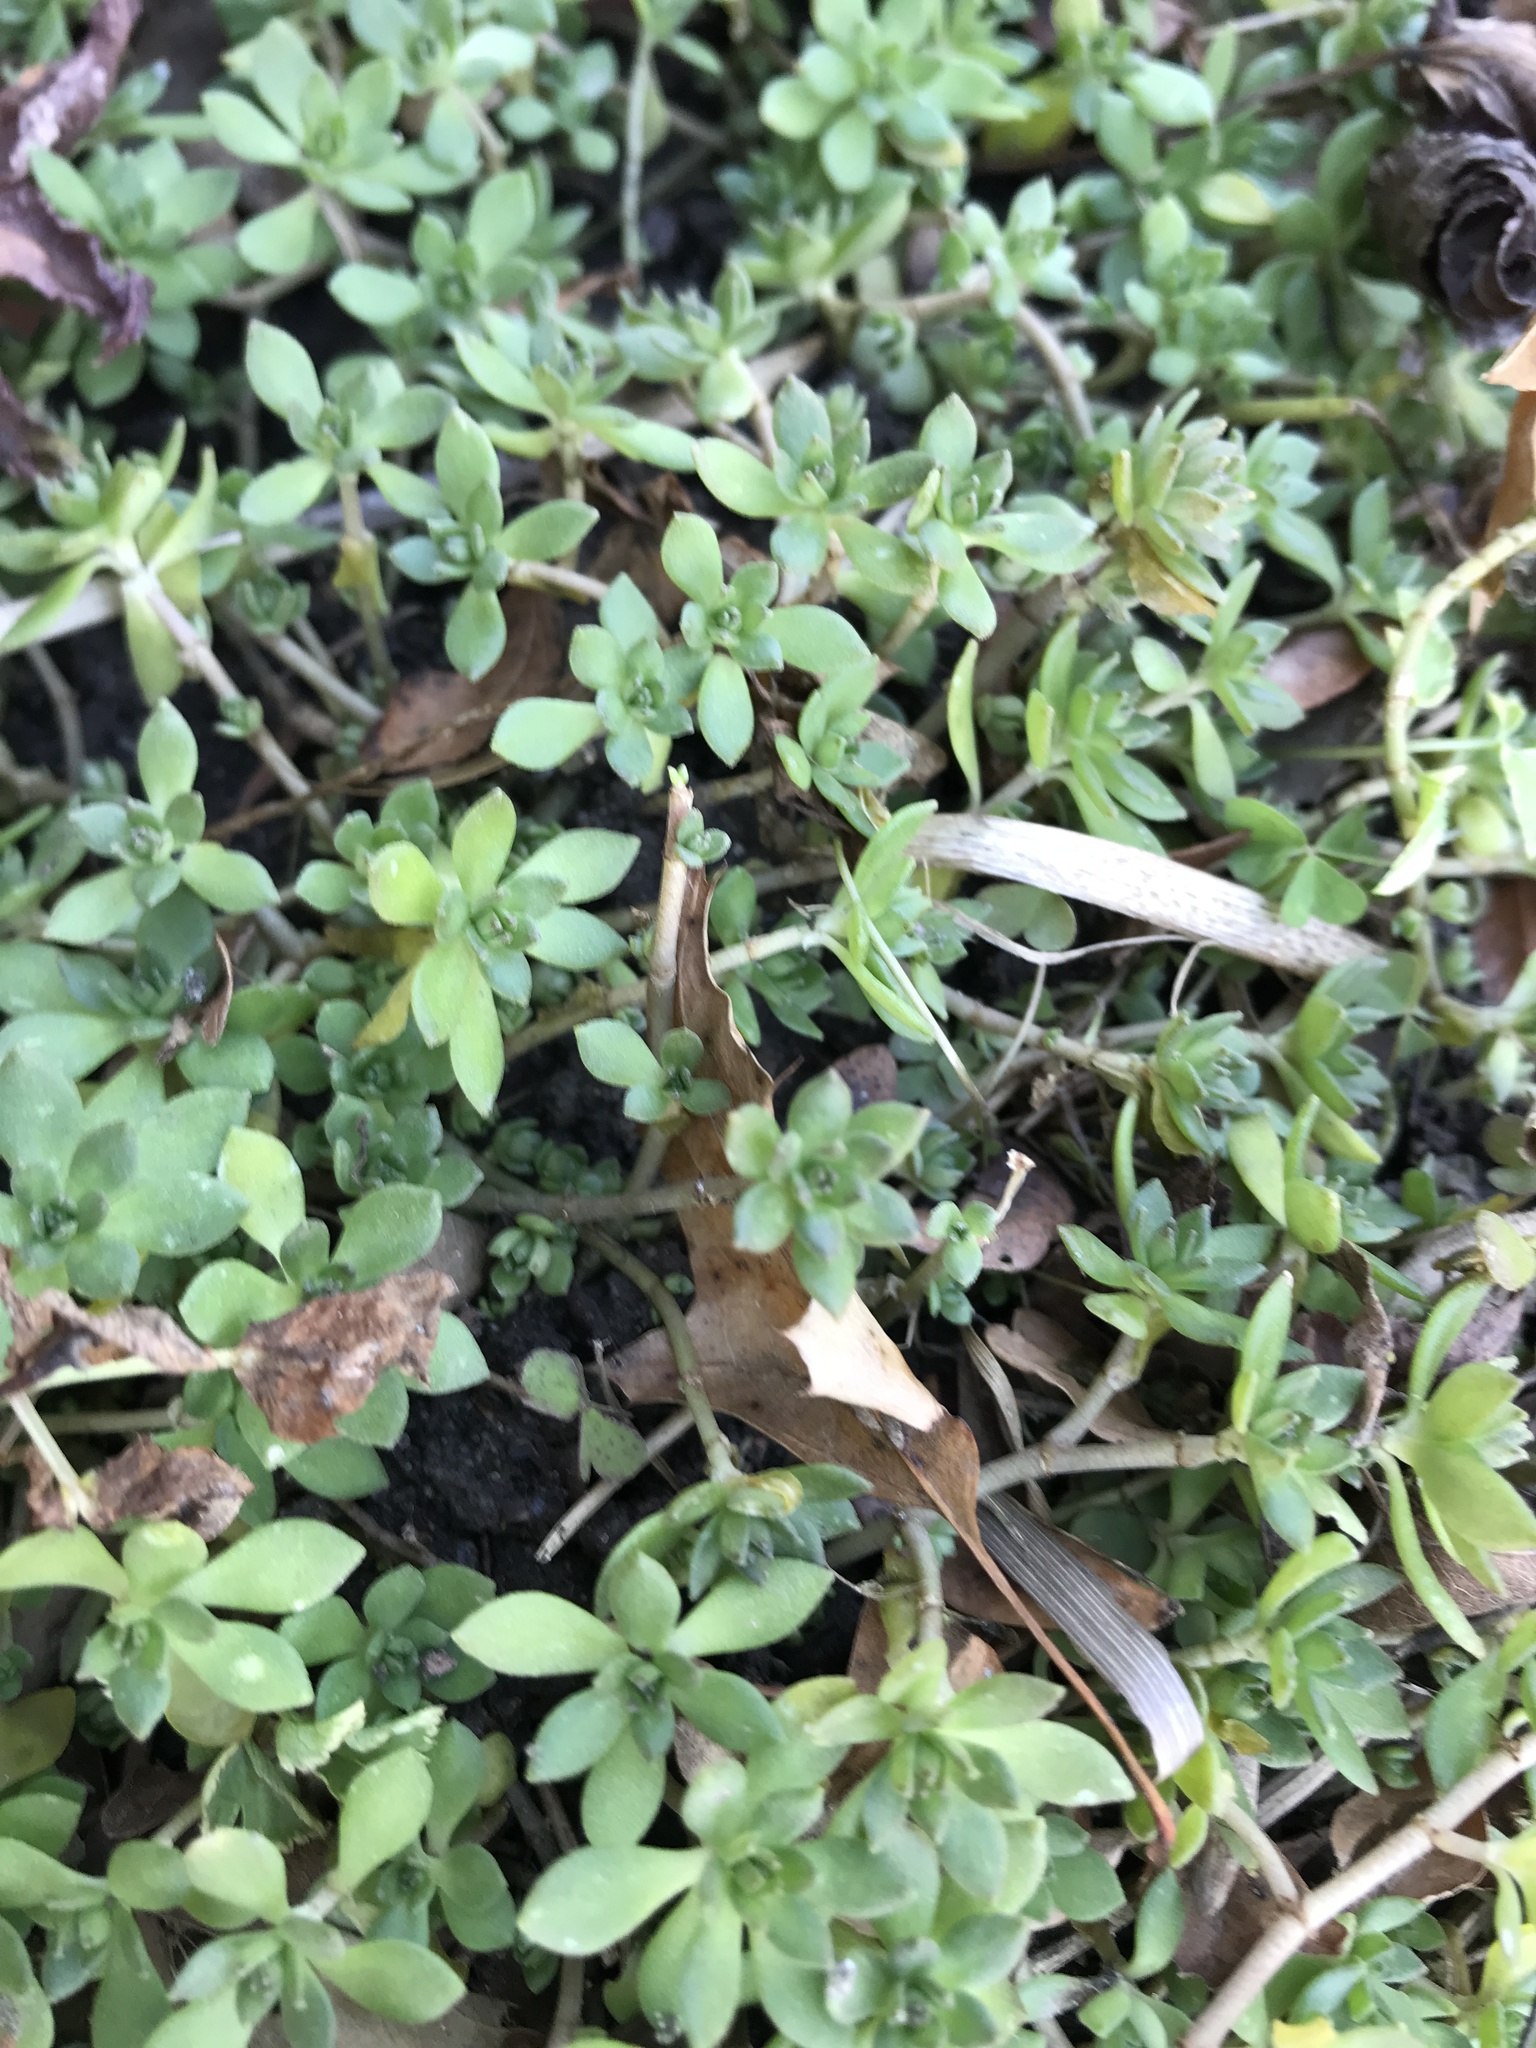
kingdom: Plantae
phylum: Tracheophyta
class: Magnoliopsida
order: Saxifragales
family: Crassulaceae
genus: Sedum
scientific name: Sedum ternatum
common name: Wild stonecrop
